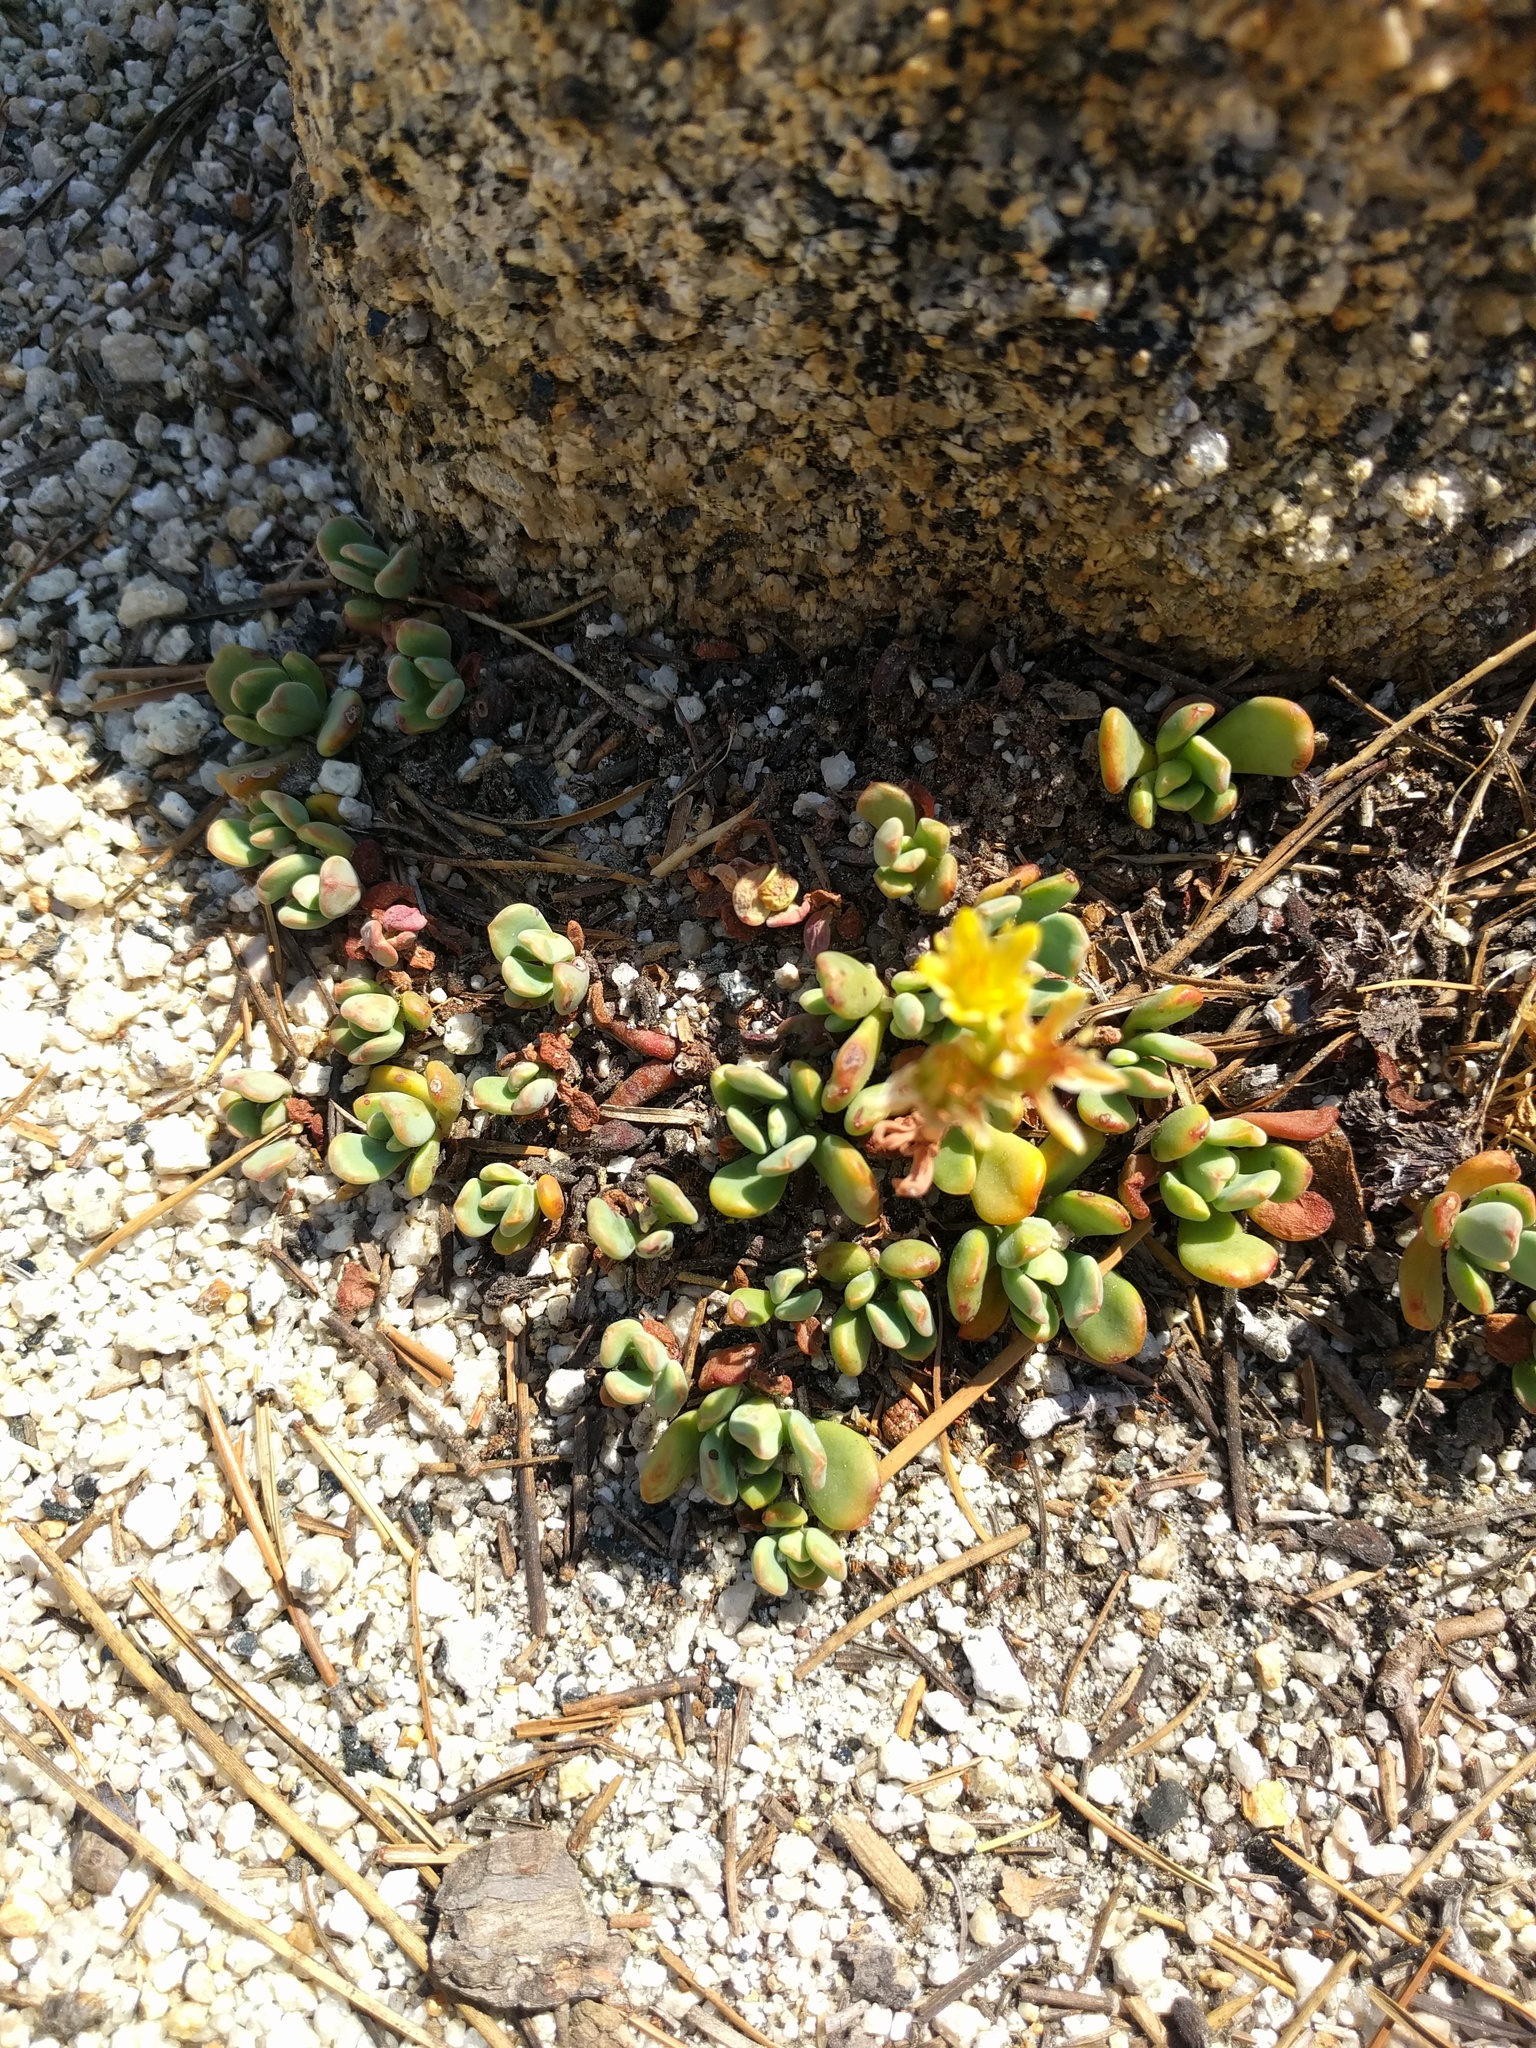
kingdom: Plantae
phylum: Tracheophyta
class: Magnoliopsida
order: Saxifragales
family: Crassulaceae
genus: Sedum
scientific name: Sedum obtusatum
